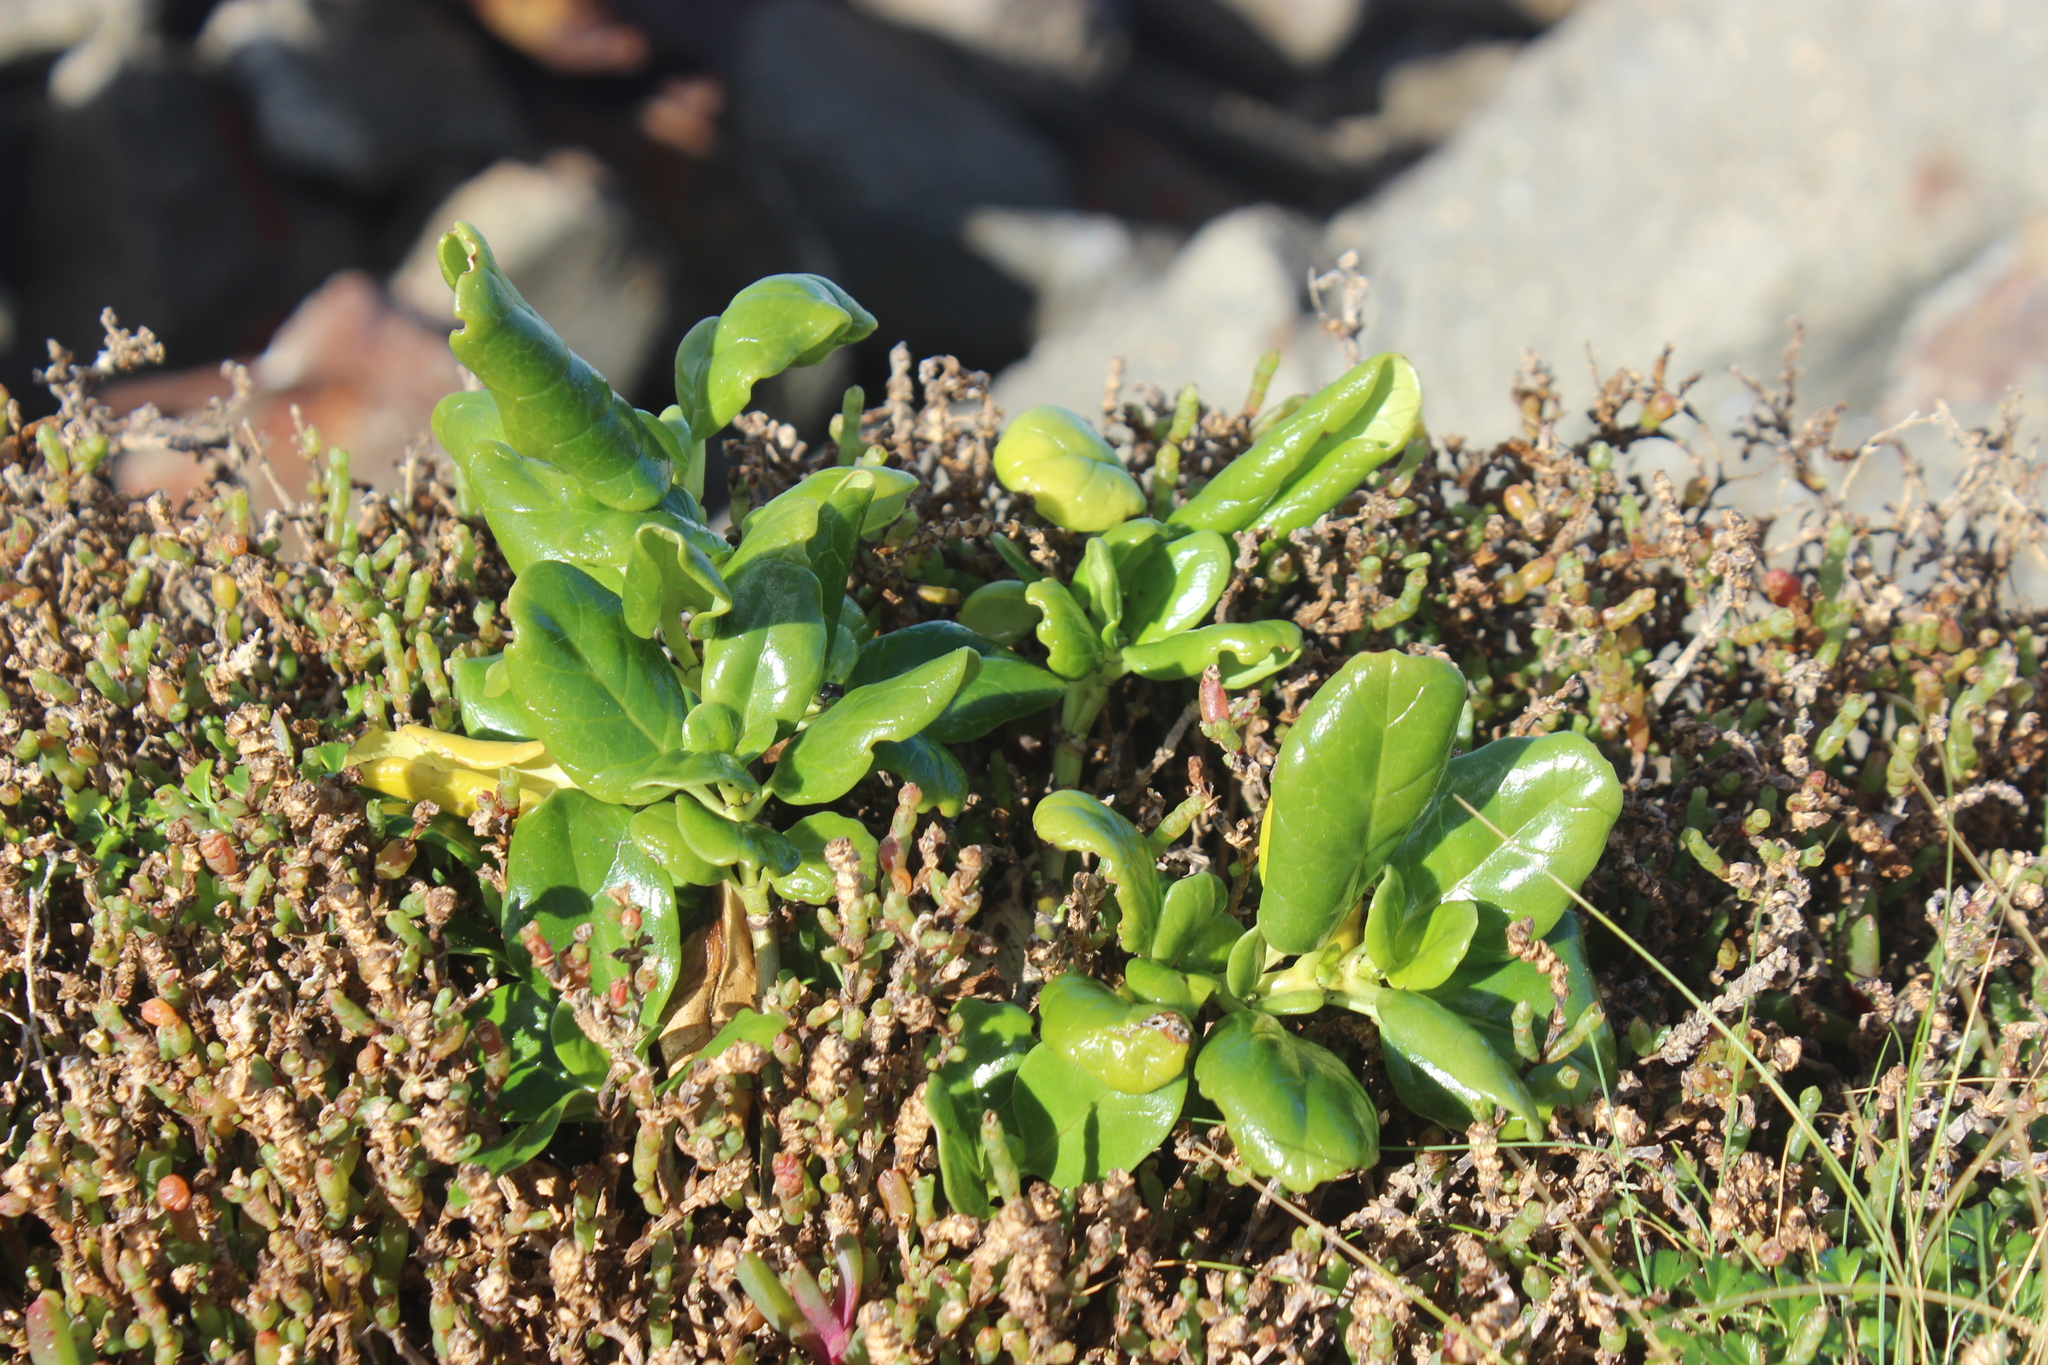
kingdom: Plantae
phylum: Tracheophyta
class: Magnoliopsida
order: Gentianales
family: Rubiaceae
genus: Coprosma
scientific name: Coprosma repens
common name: Tree bedstraw
